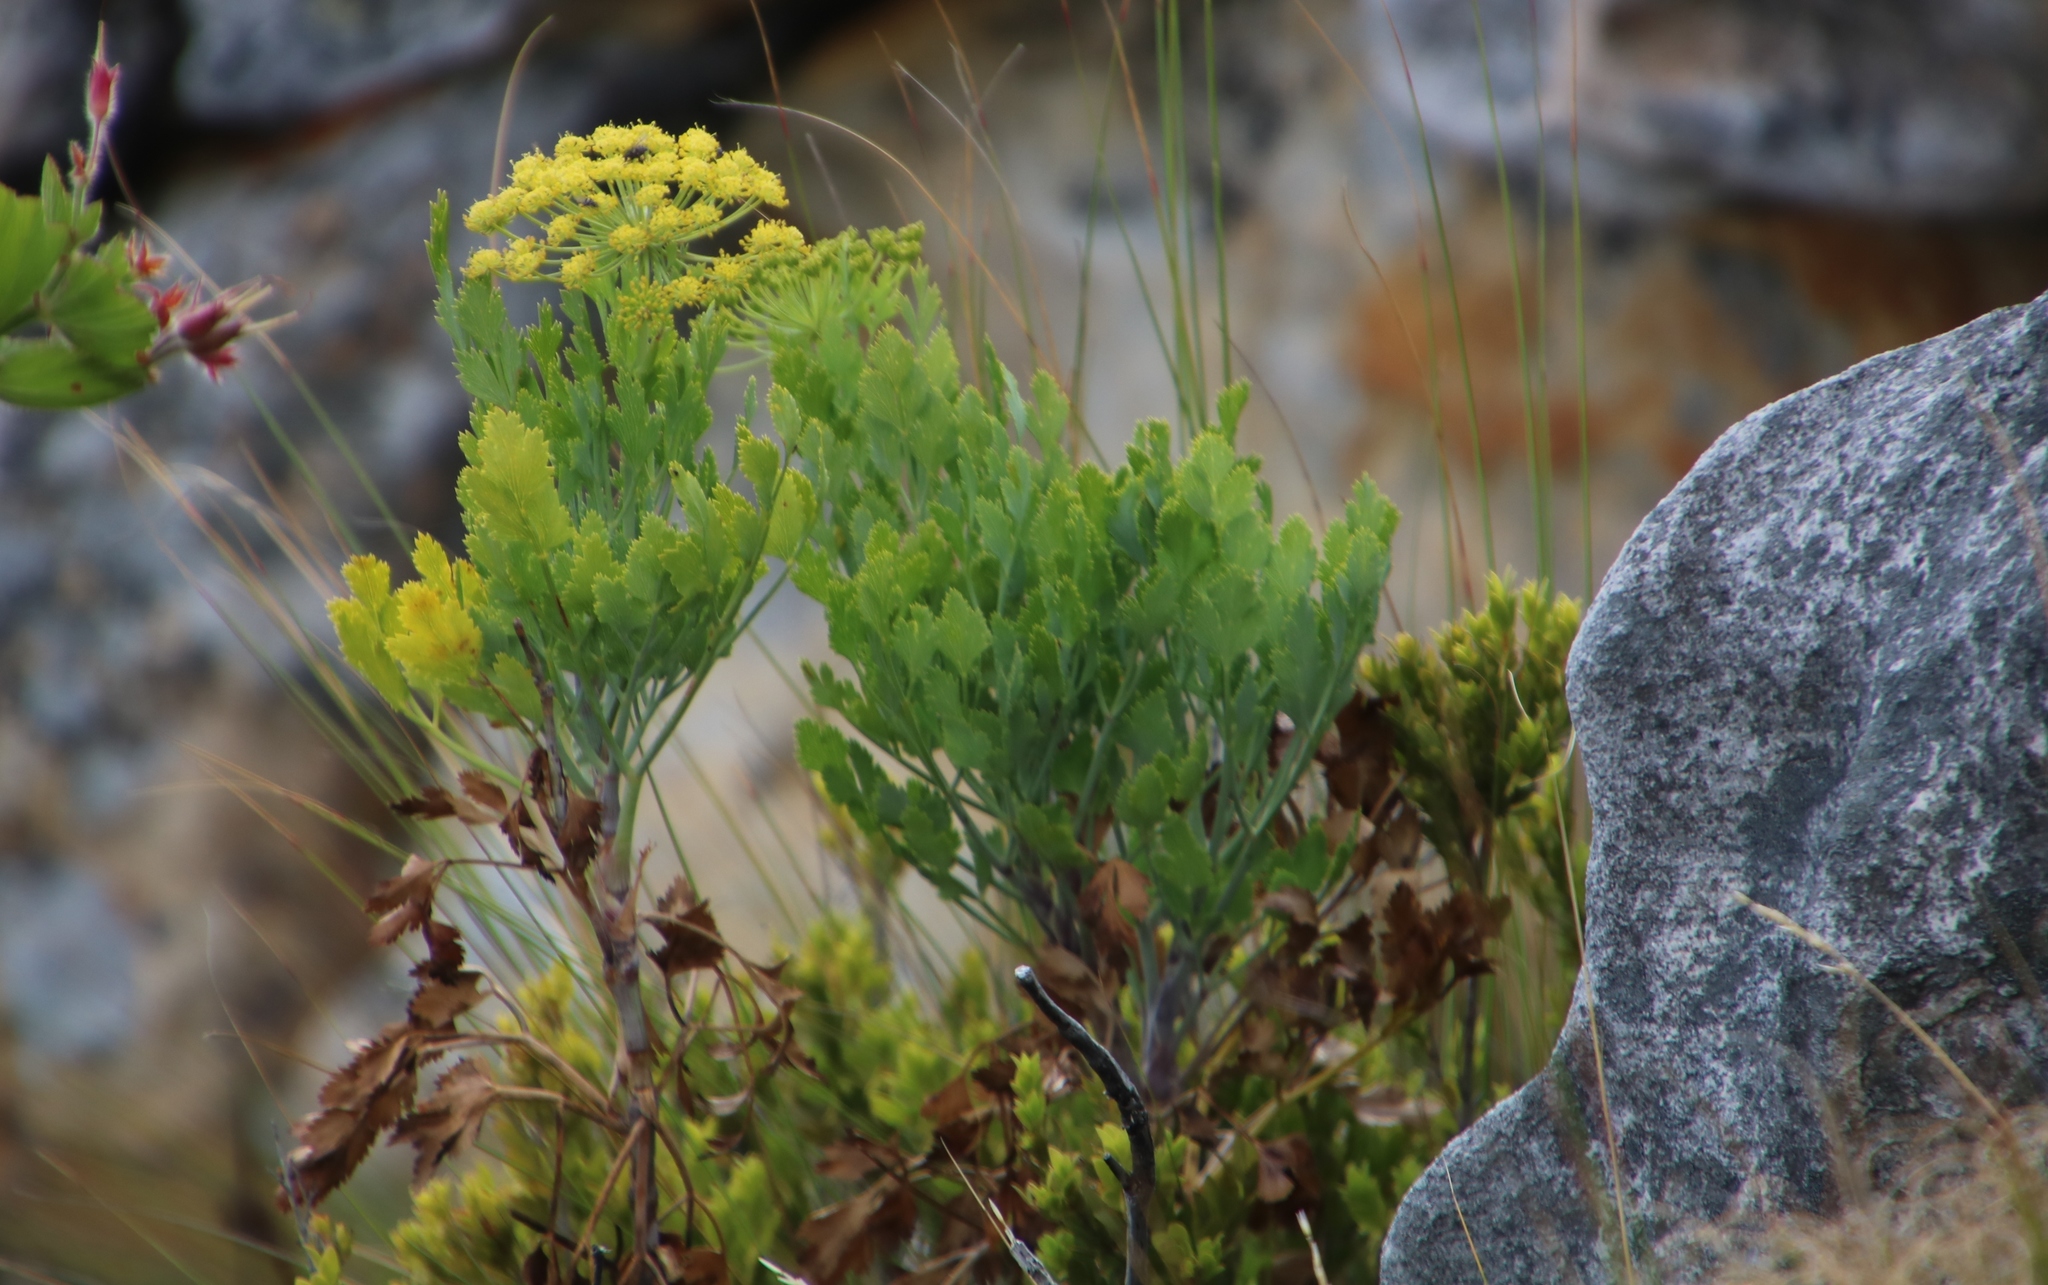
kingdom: Plantae
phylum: Tracheophyta
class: Magnoliopsida
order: Apiales
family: Apiaceae
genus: Notobubon
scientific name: Notobubon galbanum
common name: Blisterbush
